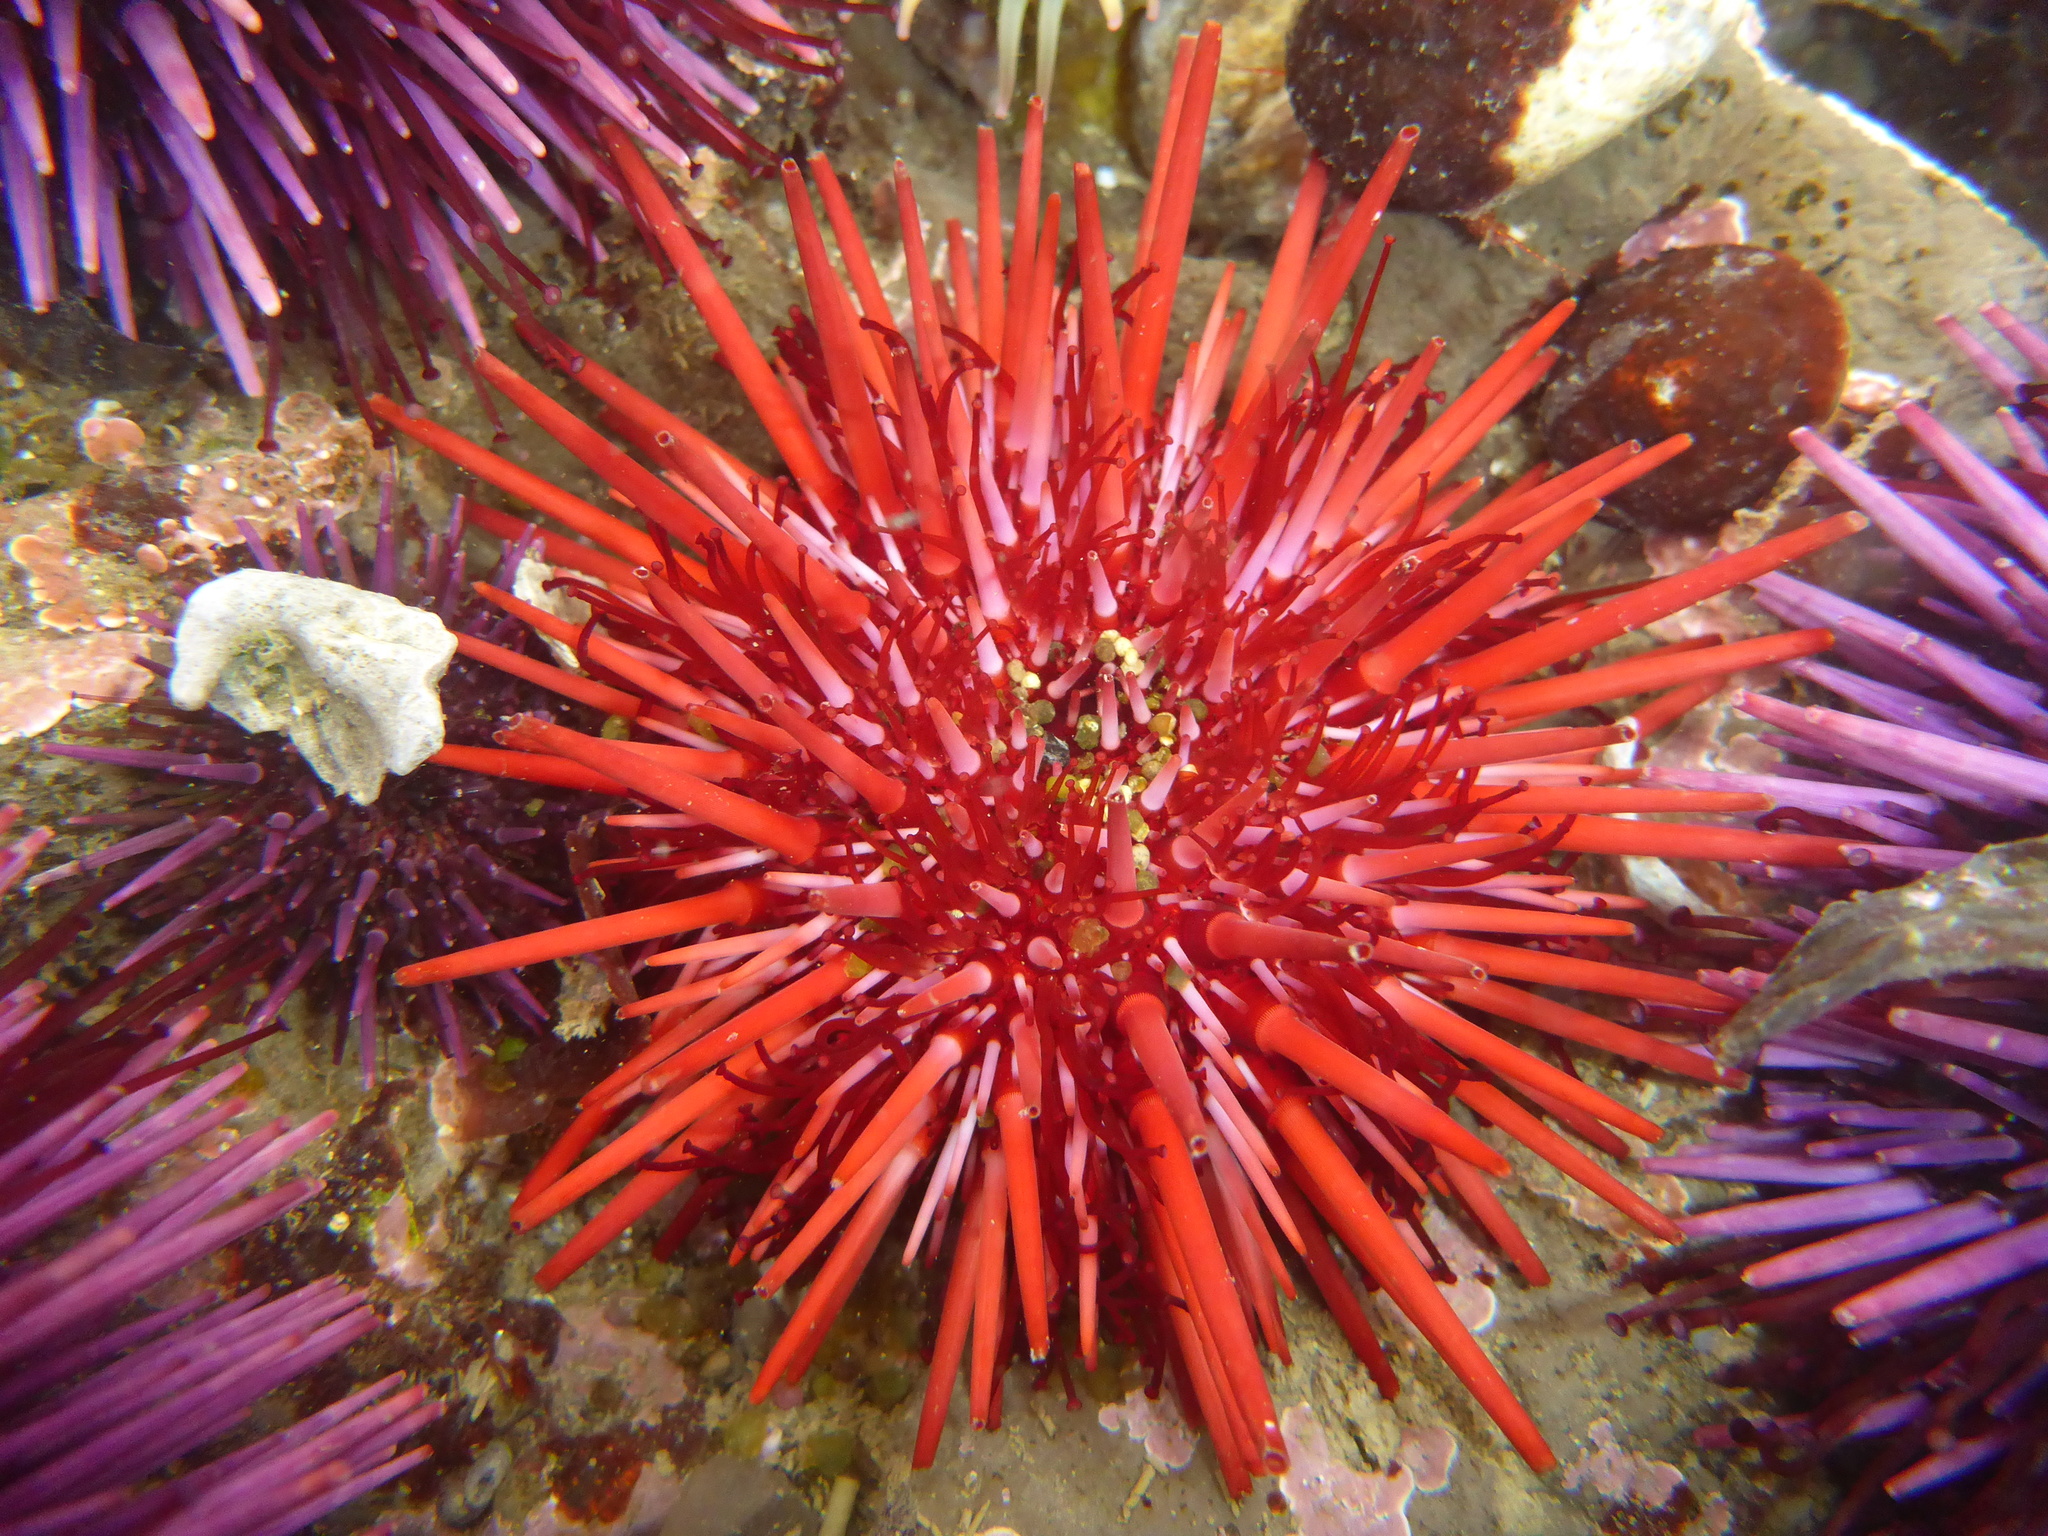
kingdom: Animalia
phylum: Echinodermata
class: Echinoidea
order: Camarodonta
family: Strongylocentrotidae
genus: Mesocentrotus
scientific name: Mesocentrotus franciscanus
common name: Red sea urchin
